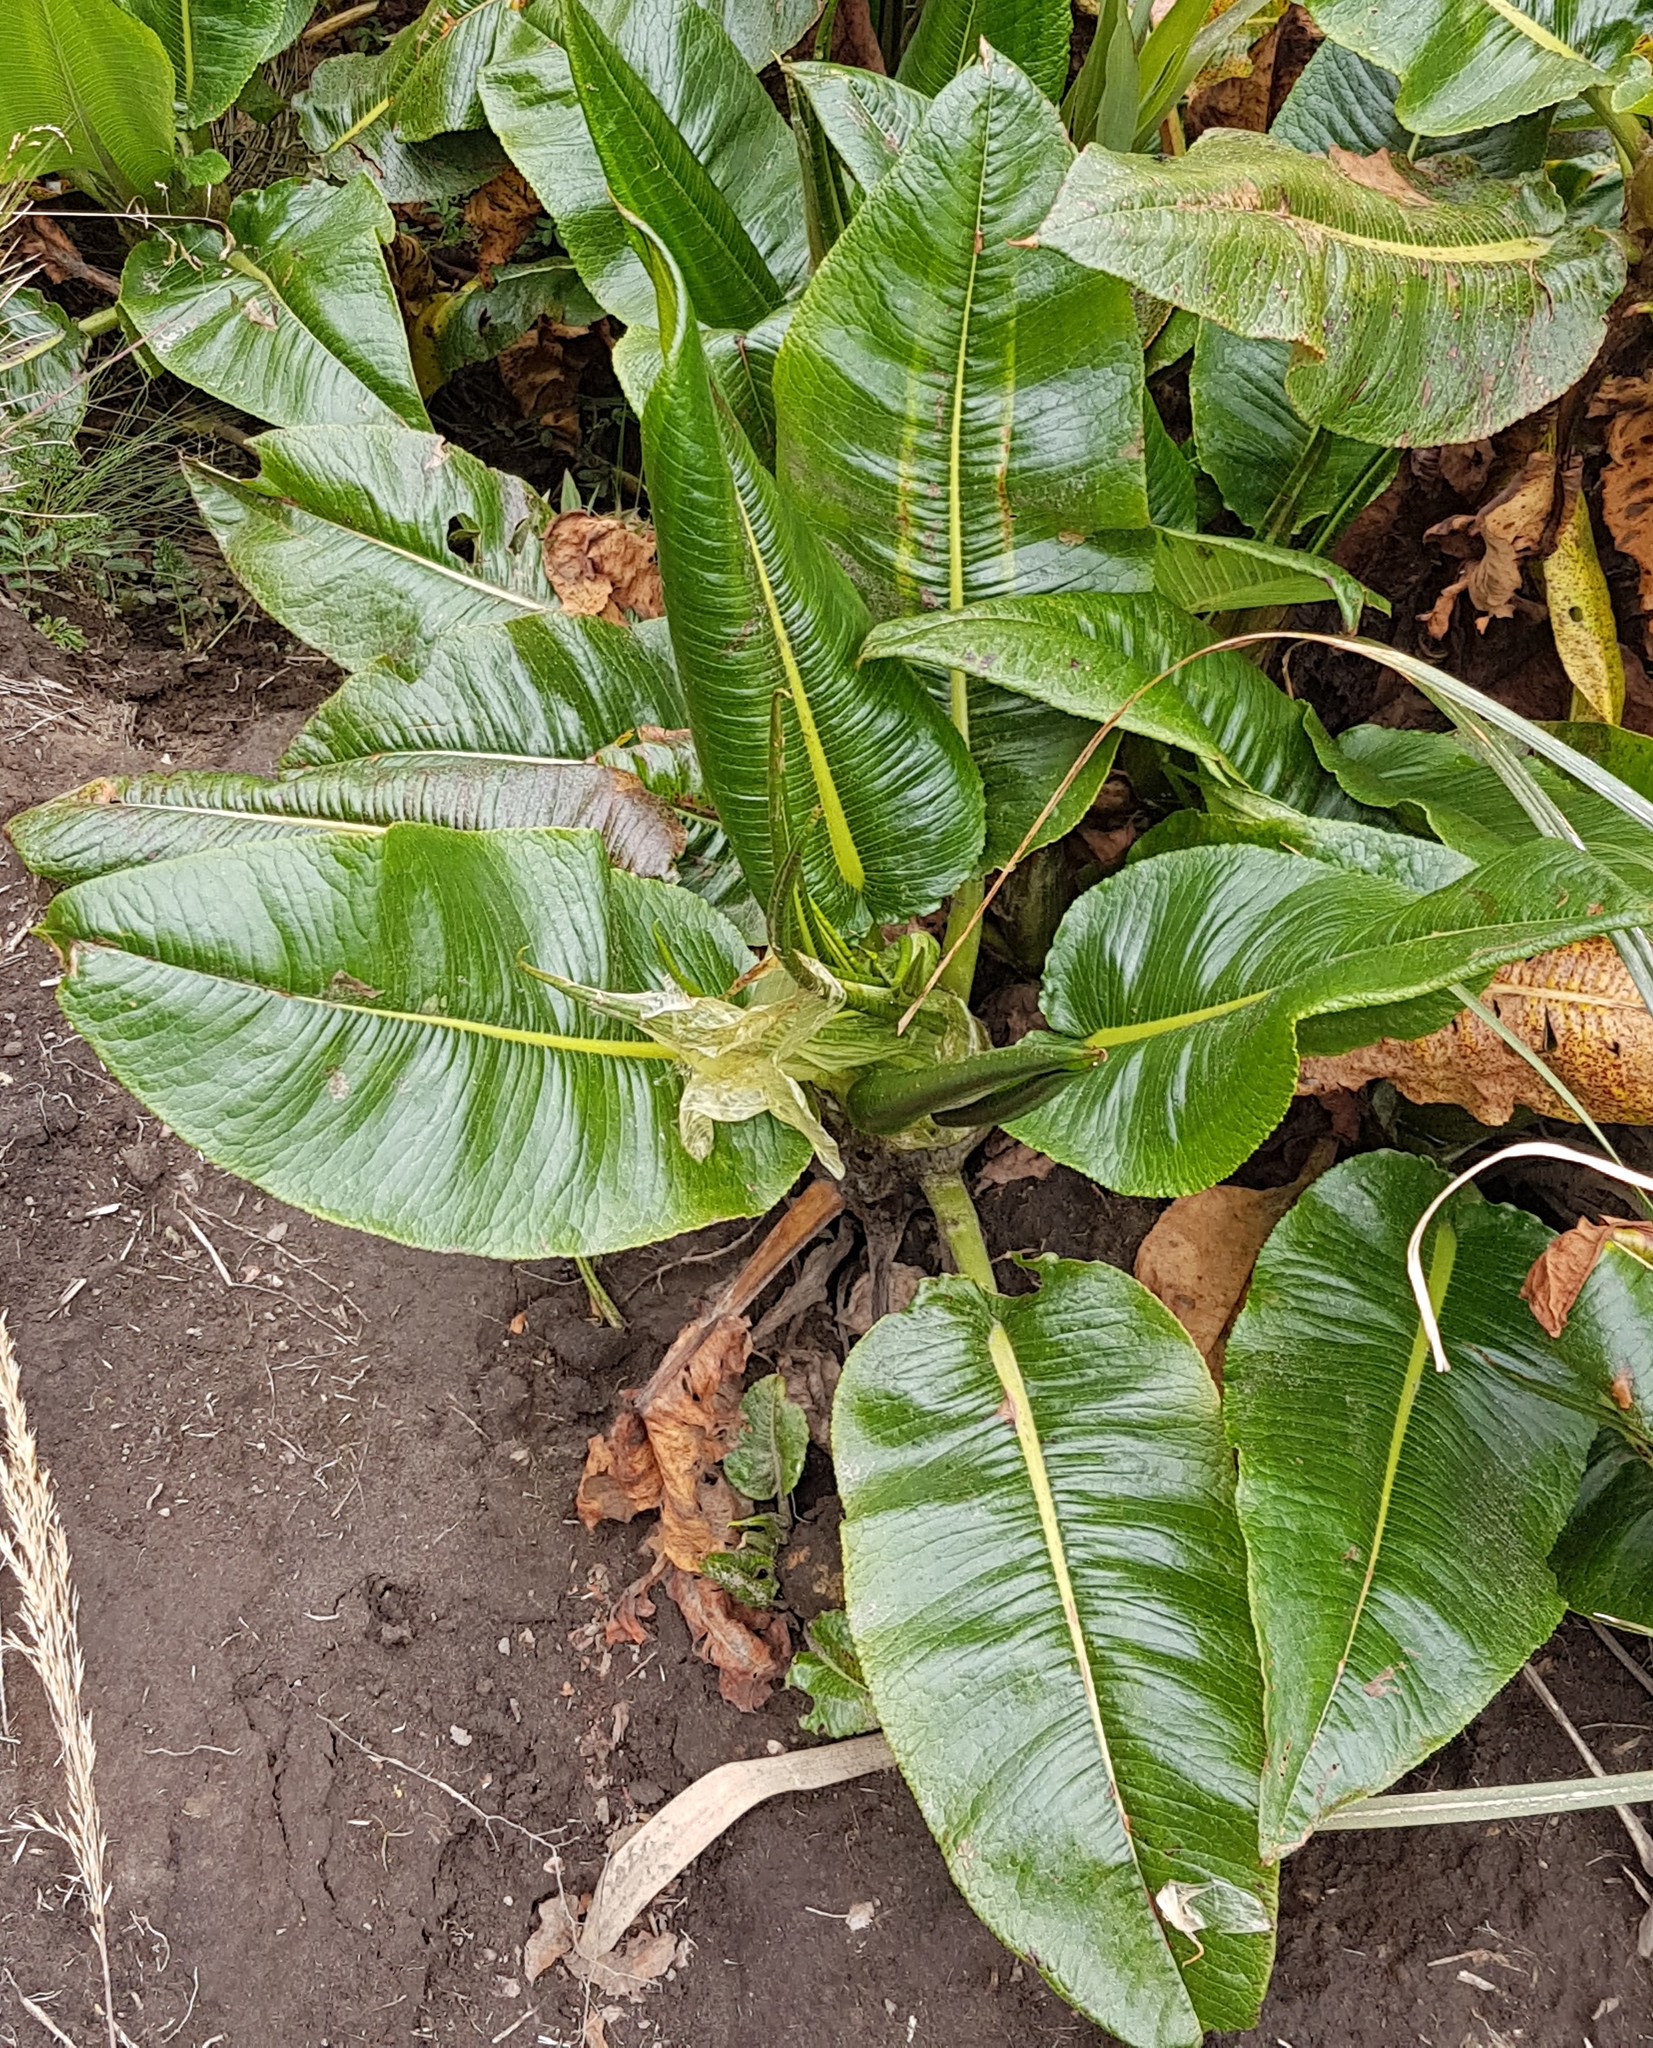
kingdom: Plantae
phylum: Tracheophyta
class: Magnoliopsida
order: Caryophyllales
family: Polygonaceae
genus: Rumex
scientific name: Rumex tolimensis
